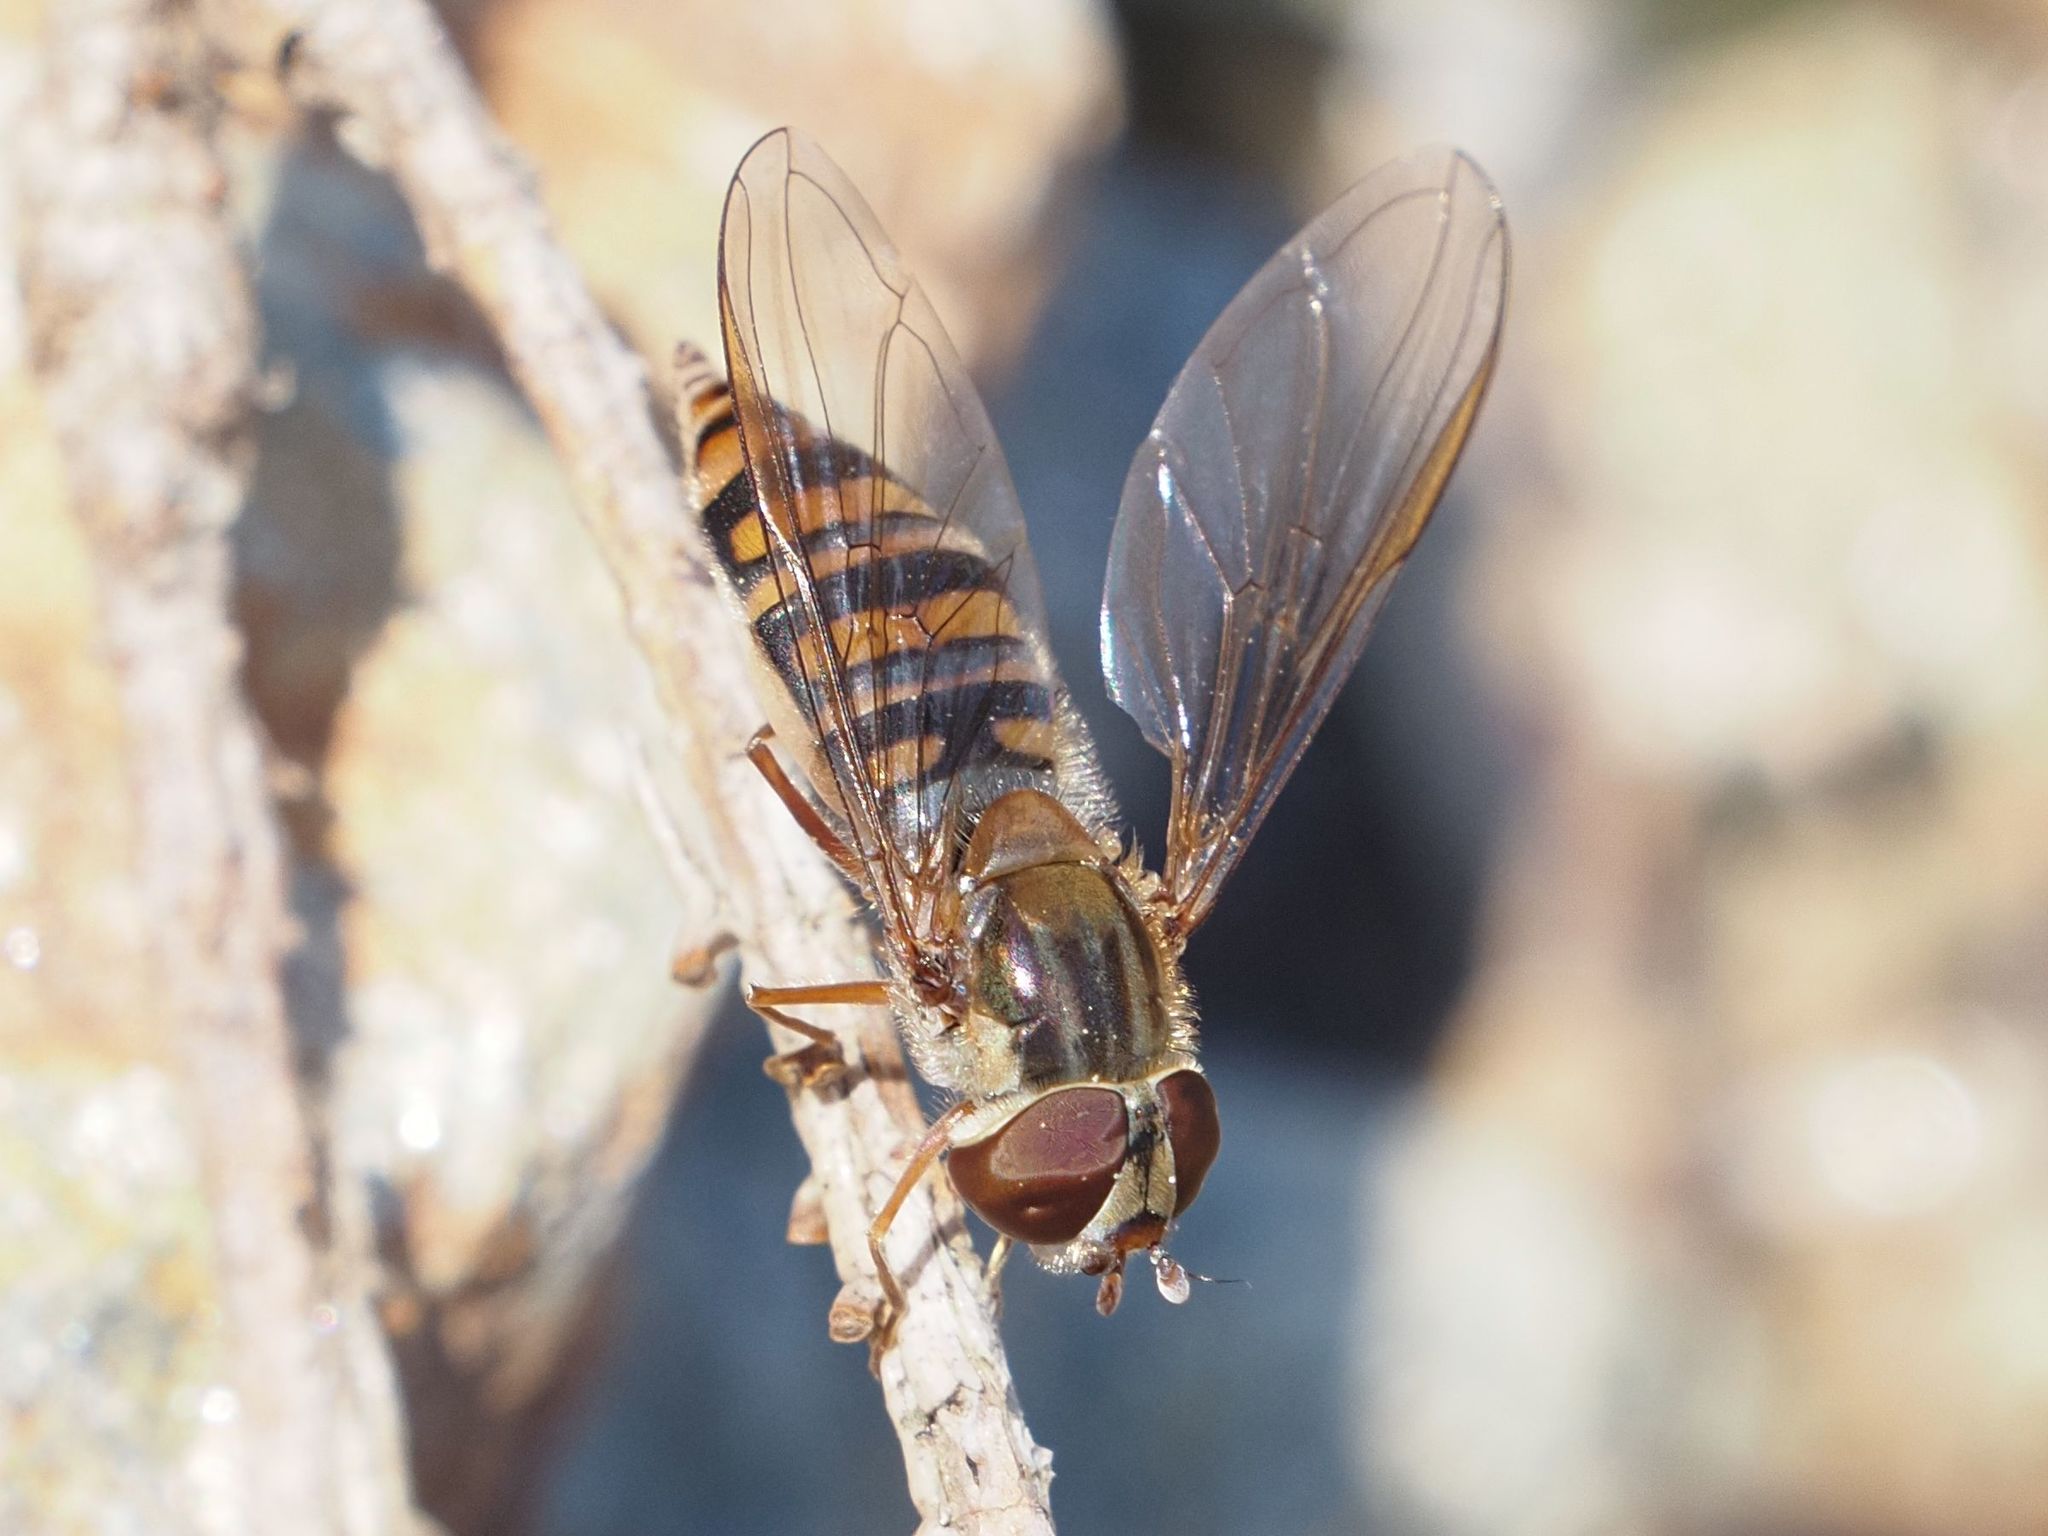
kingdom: Animalia
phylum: Arthropoda
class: Insecta
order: Diptera
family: Syrphidae
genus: Episyrphus
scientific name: Episyrphus balteatus
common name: Marmalade hoverfly
